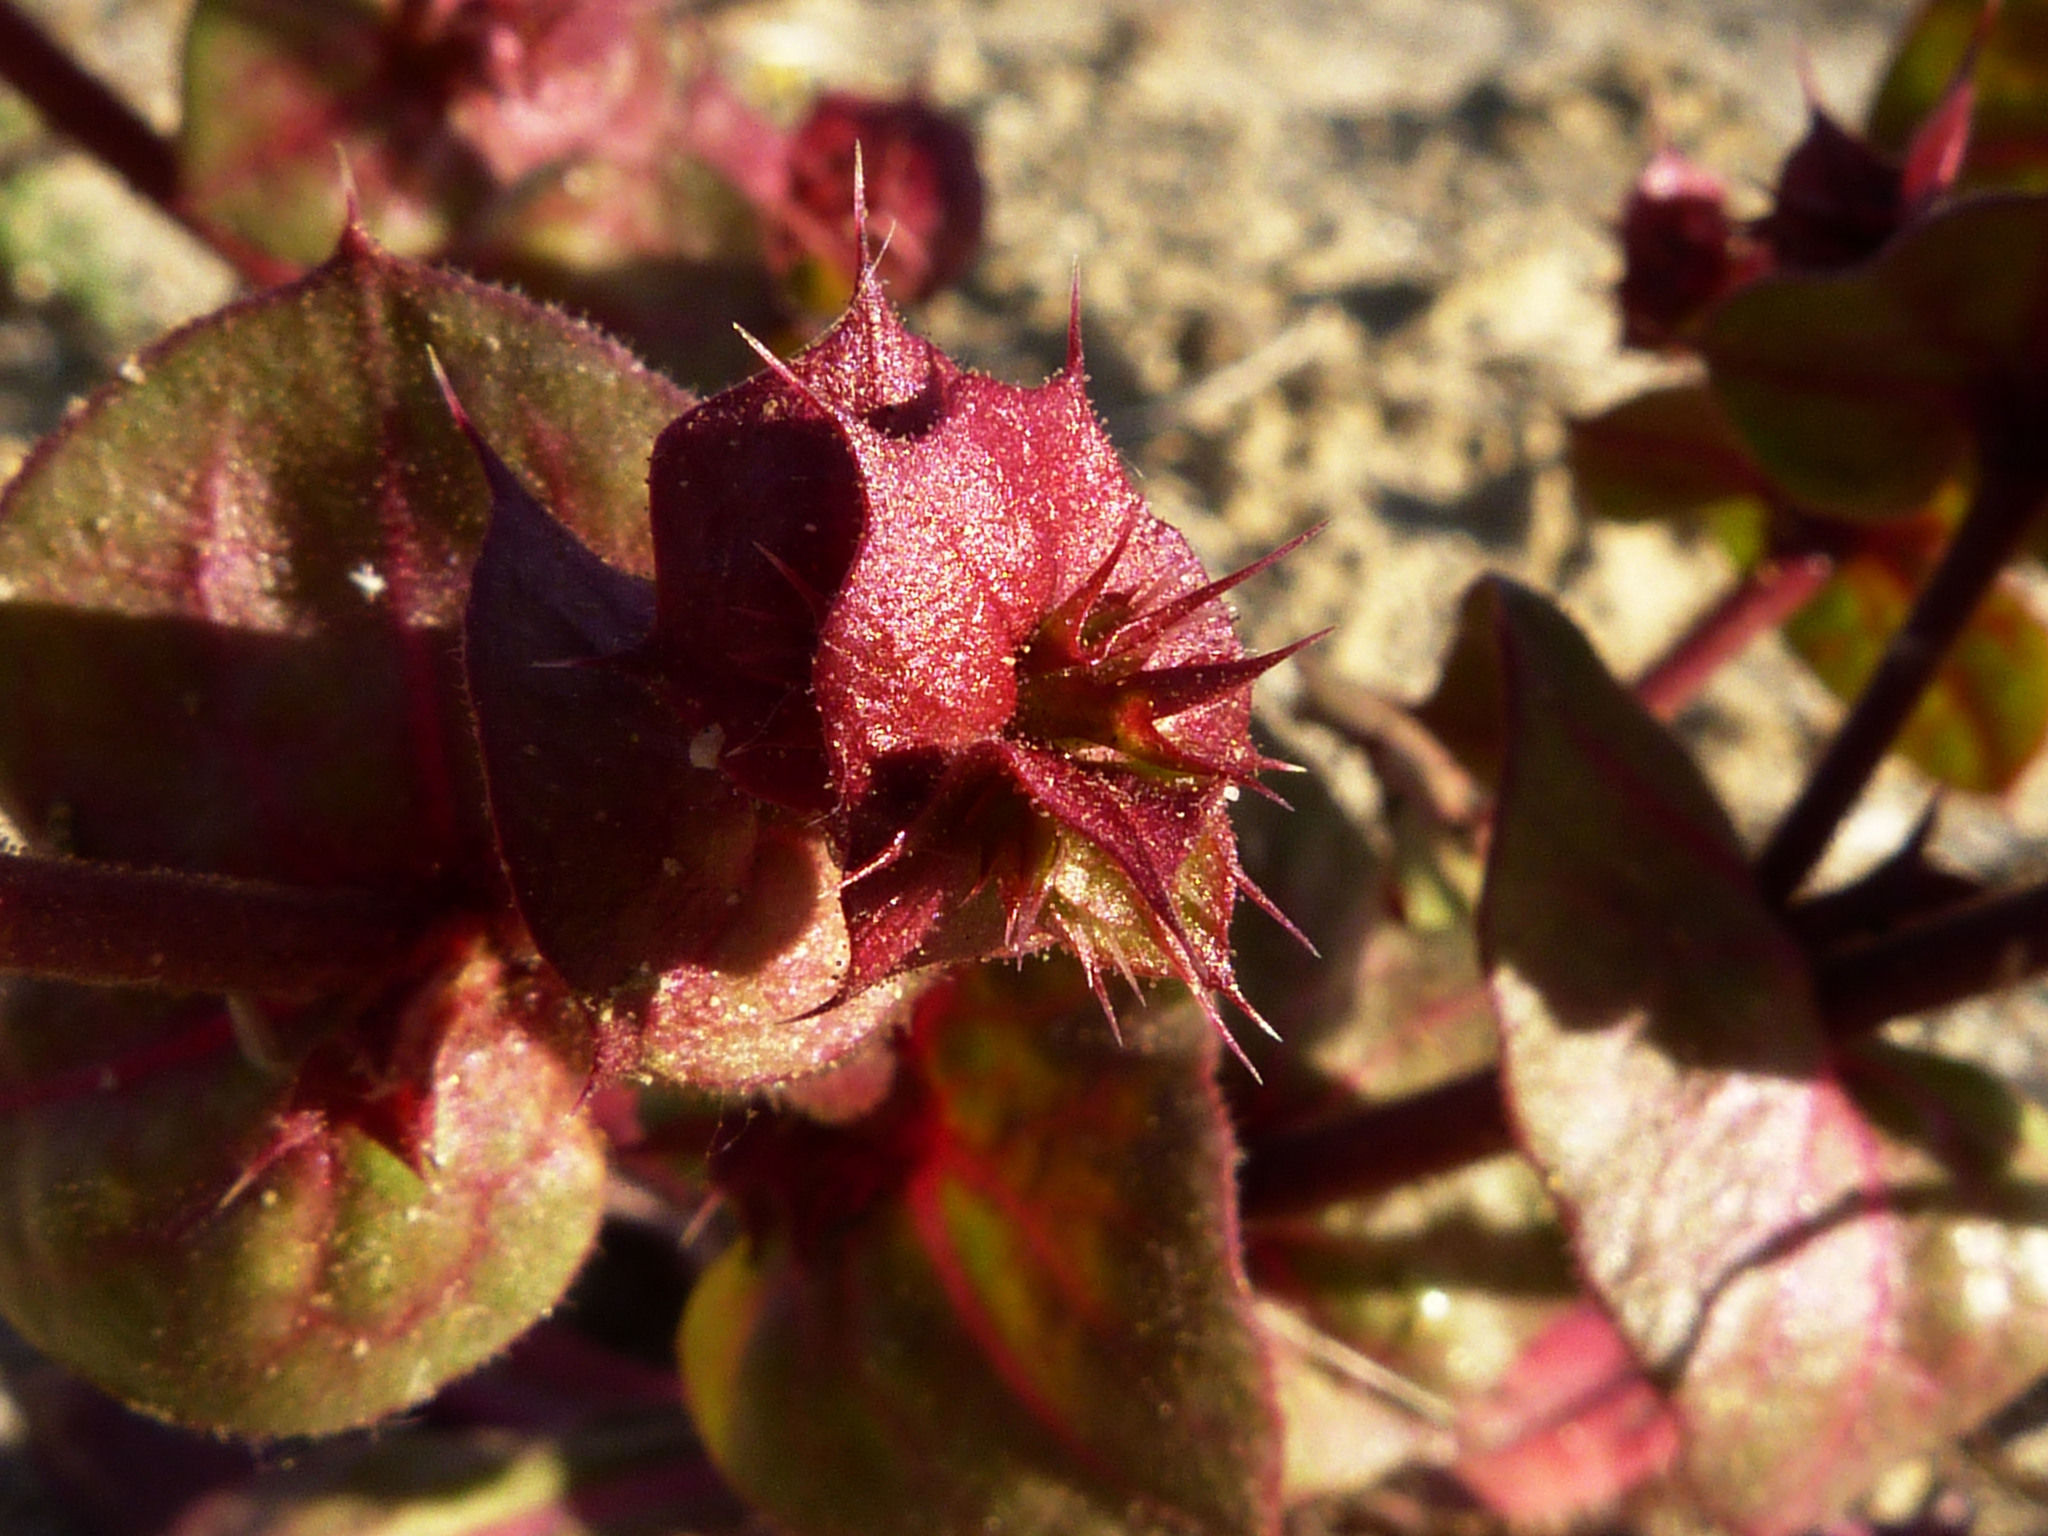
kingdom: Plantae
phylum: Tracheophyta
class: Magnoliopsida
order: Caryophyllales
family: Polygonaceae
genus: Mucronea
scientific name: Mucronea perfoliata
